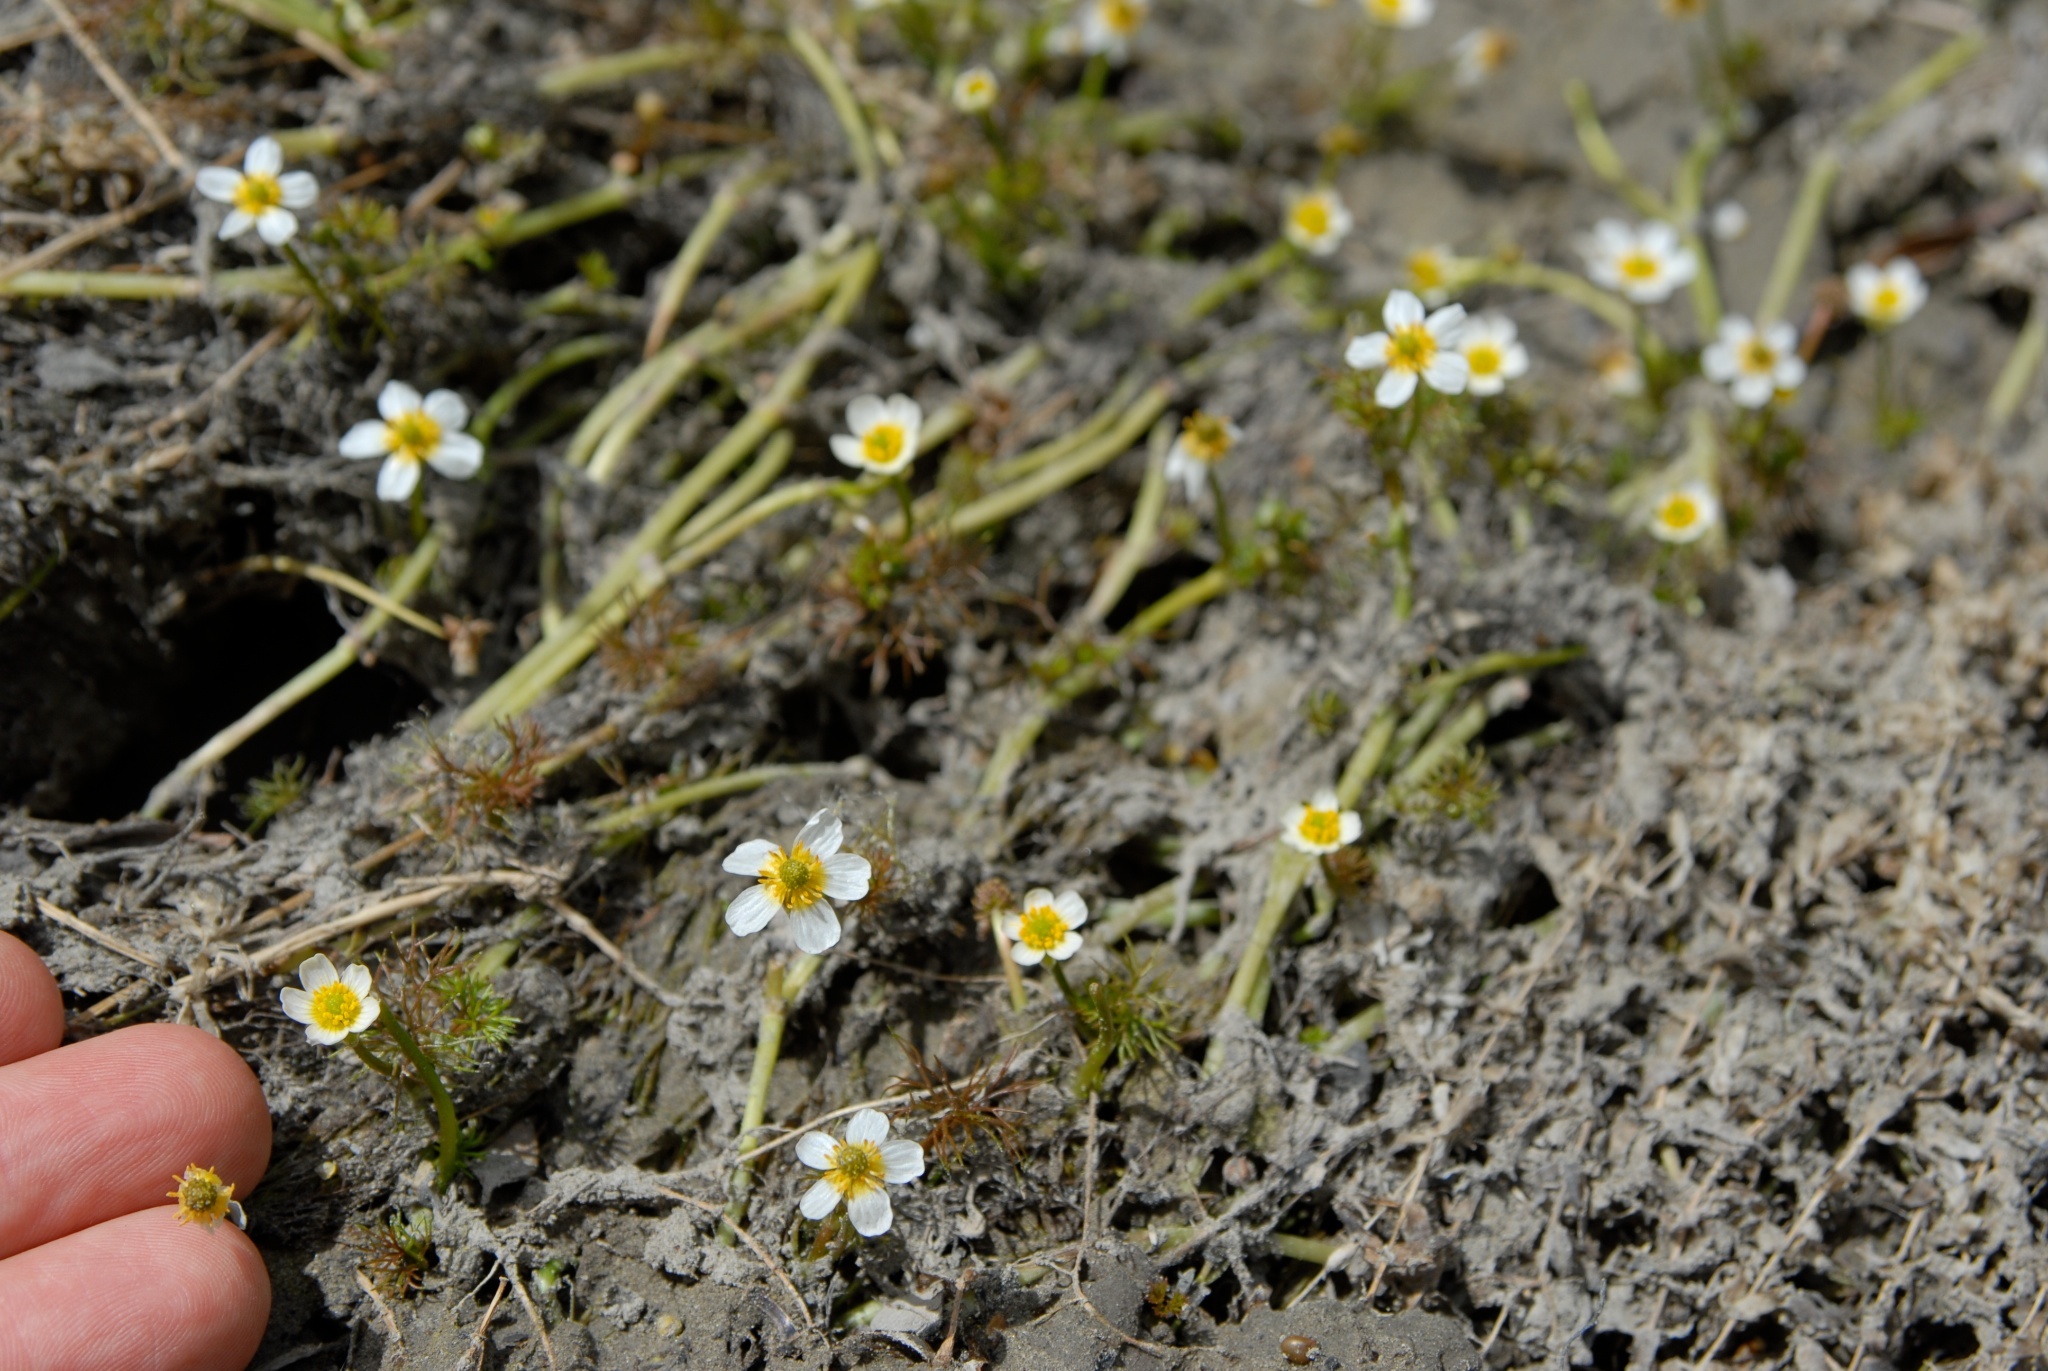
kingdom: Plantae
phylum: Tracheophyta
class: Magnoliopsida
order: Ranunculales
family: Ranunculaceae
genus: Ranunculus
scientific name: Ranunculus trichophyllus
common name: Thread-leaved water-crowfoot
